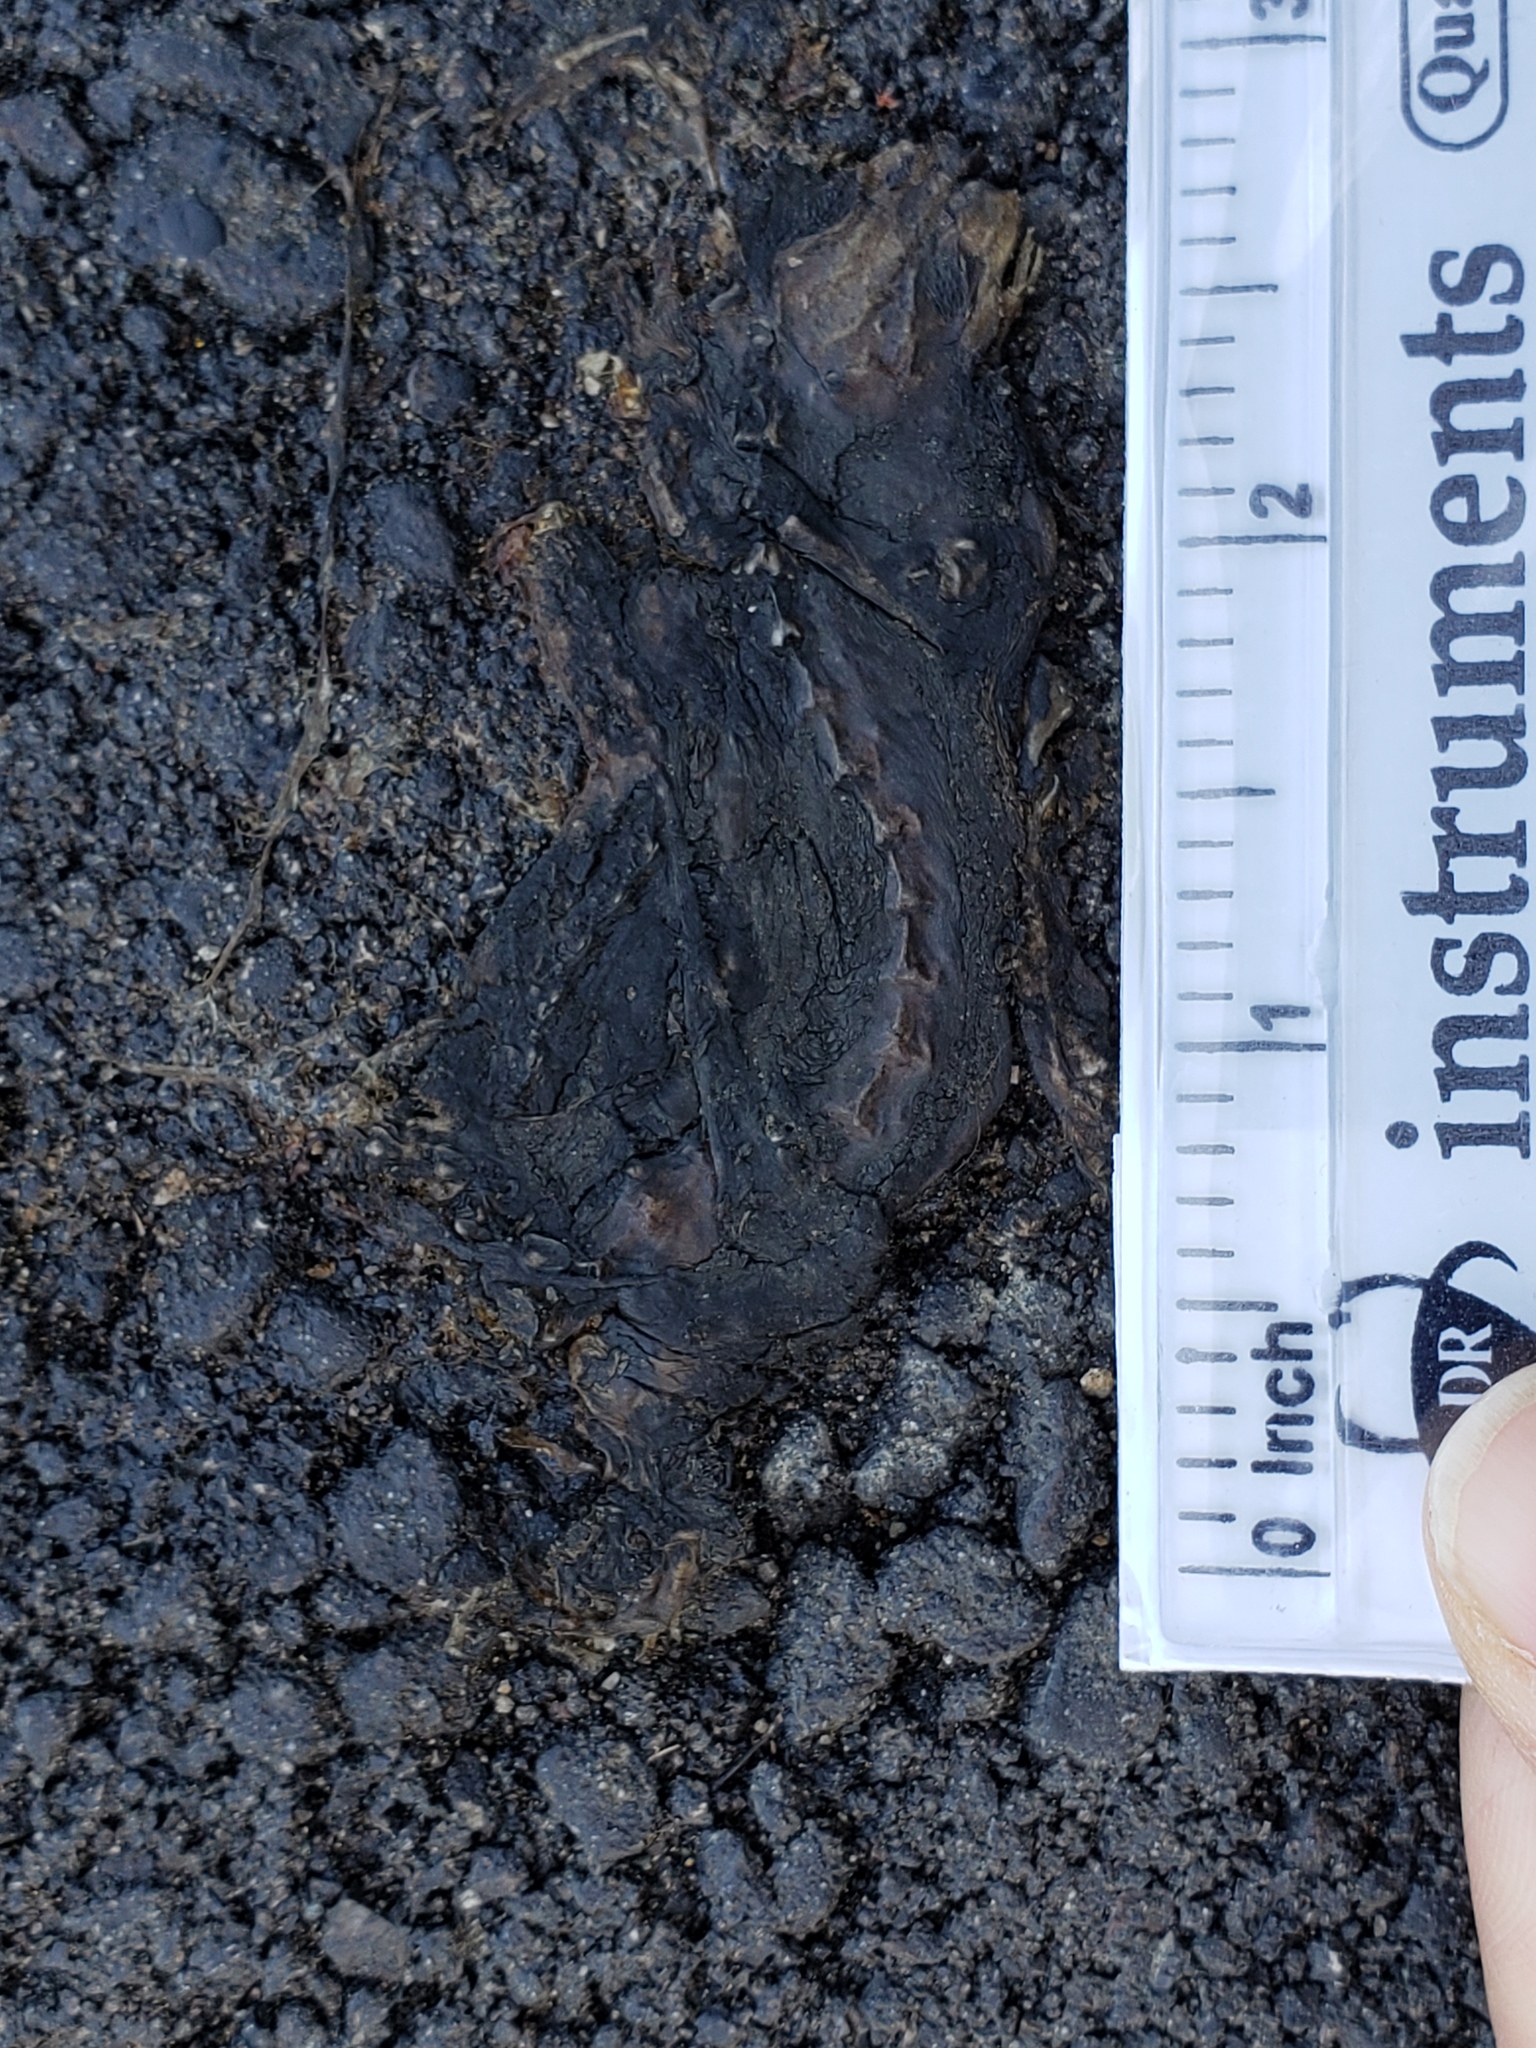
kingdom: Animalia
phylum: Chordata
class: Amphibia
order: Caudata
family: Salamandridae
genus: Taricha
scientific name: Taricha
